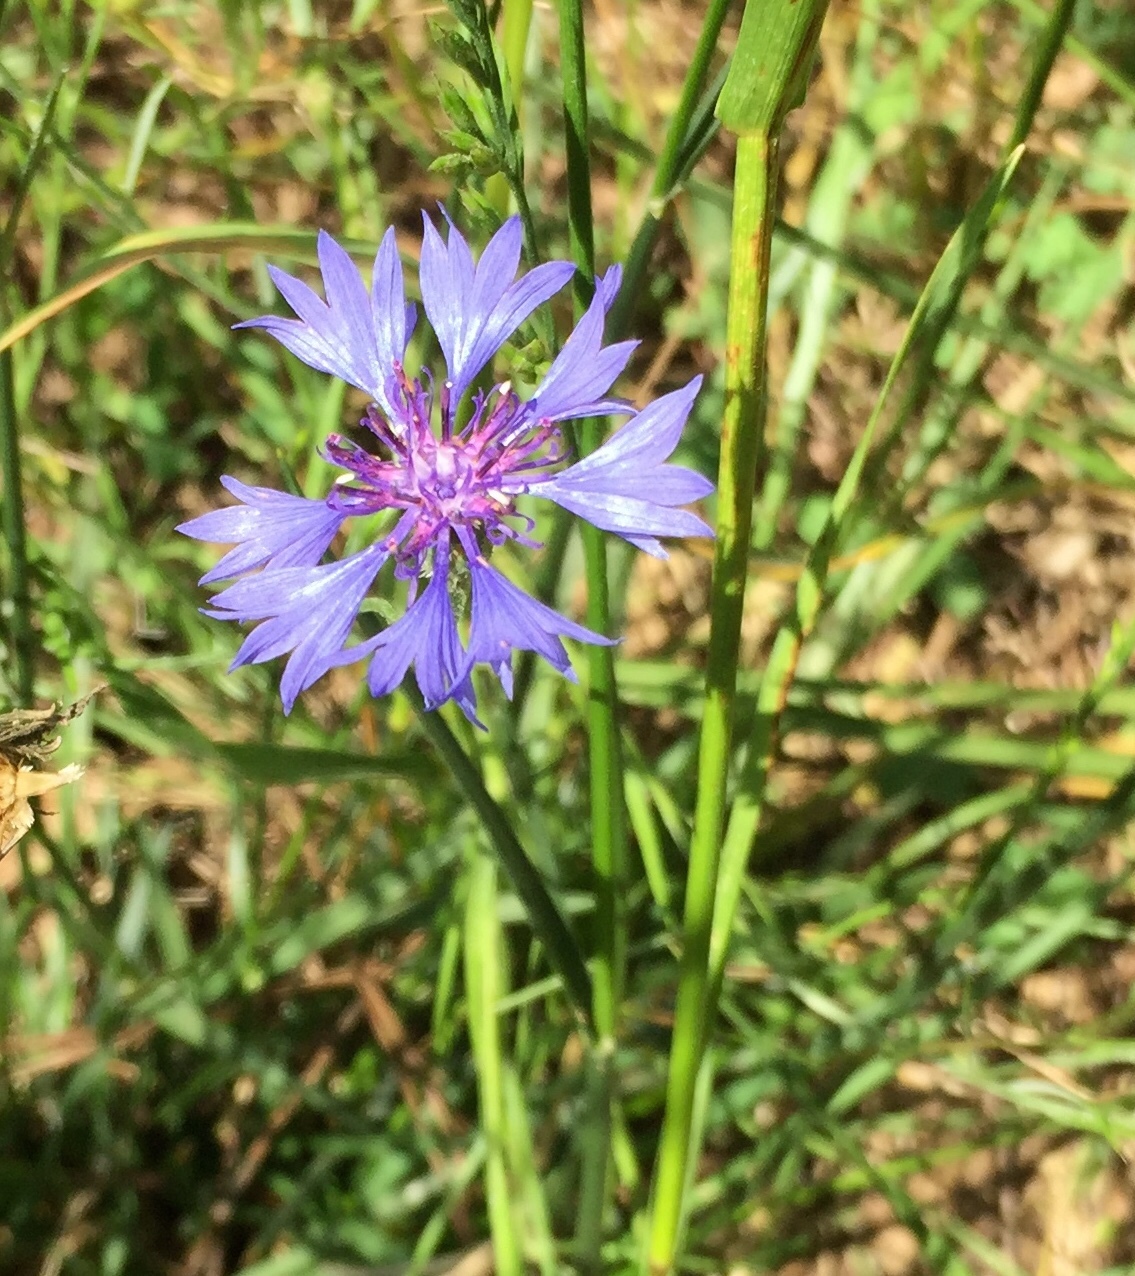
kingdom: Plantae
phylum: Tracheophyta
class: Magnoliopsida
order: Asterales
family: Asteraceae
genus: Centaurea
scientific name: Centaurea cyanus
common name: Cornflower
